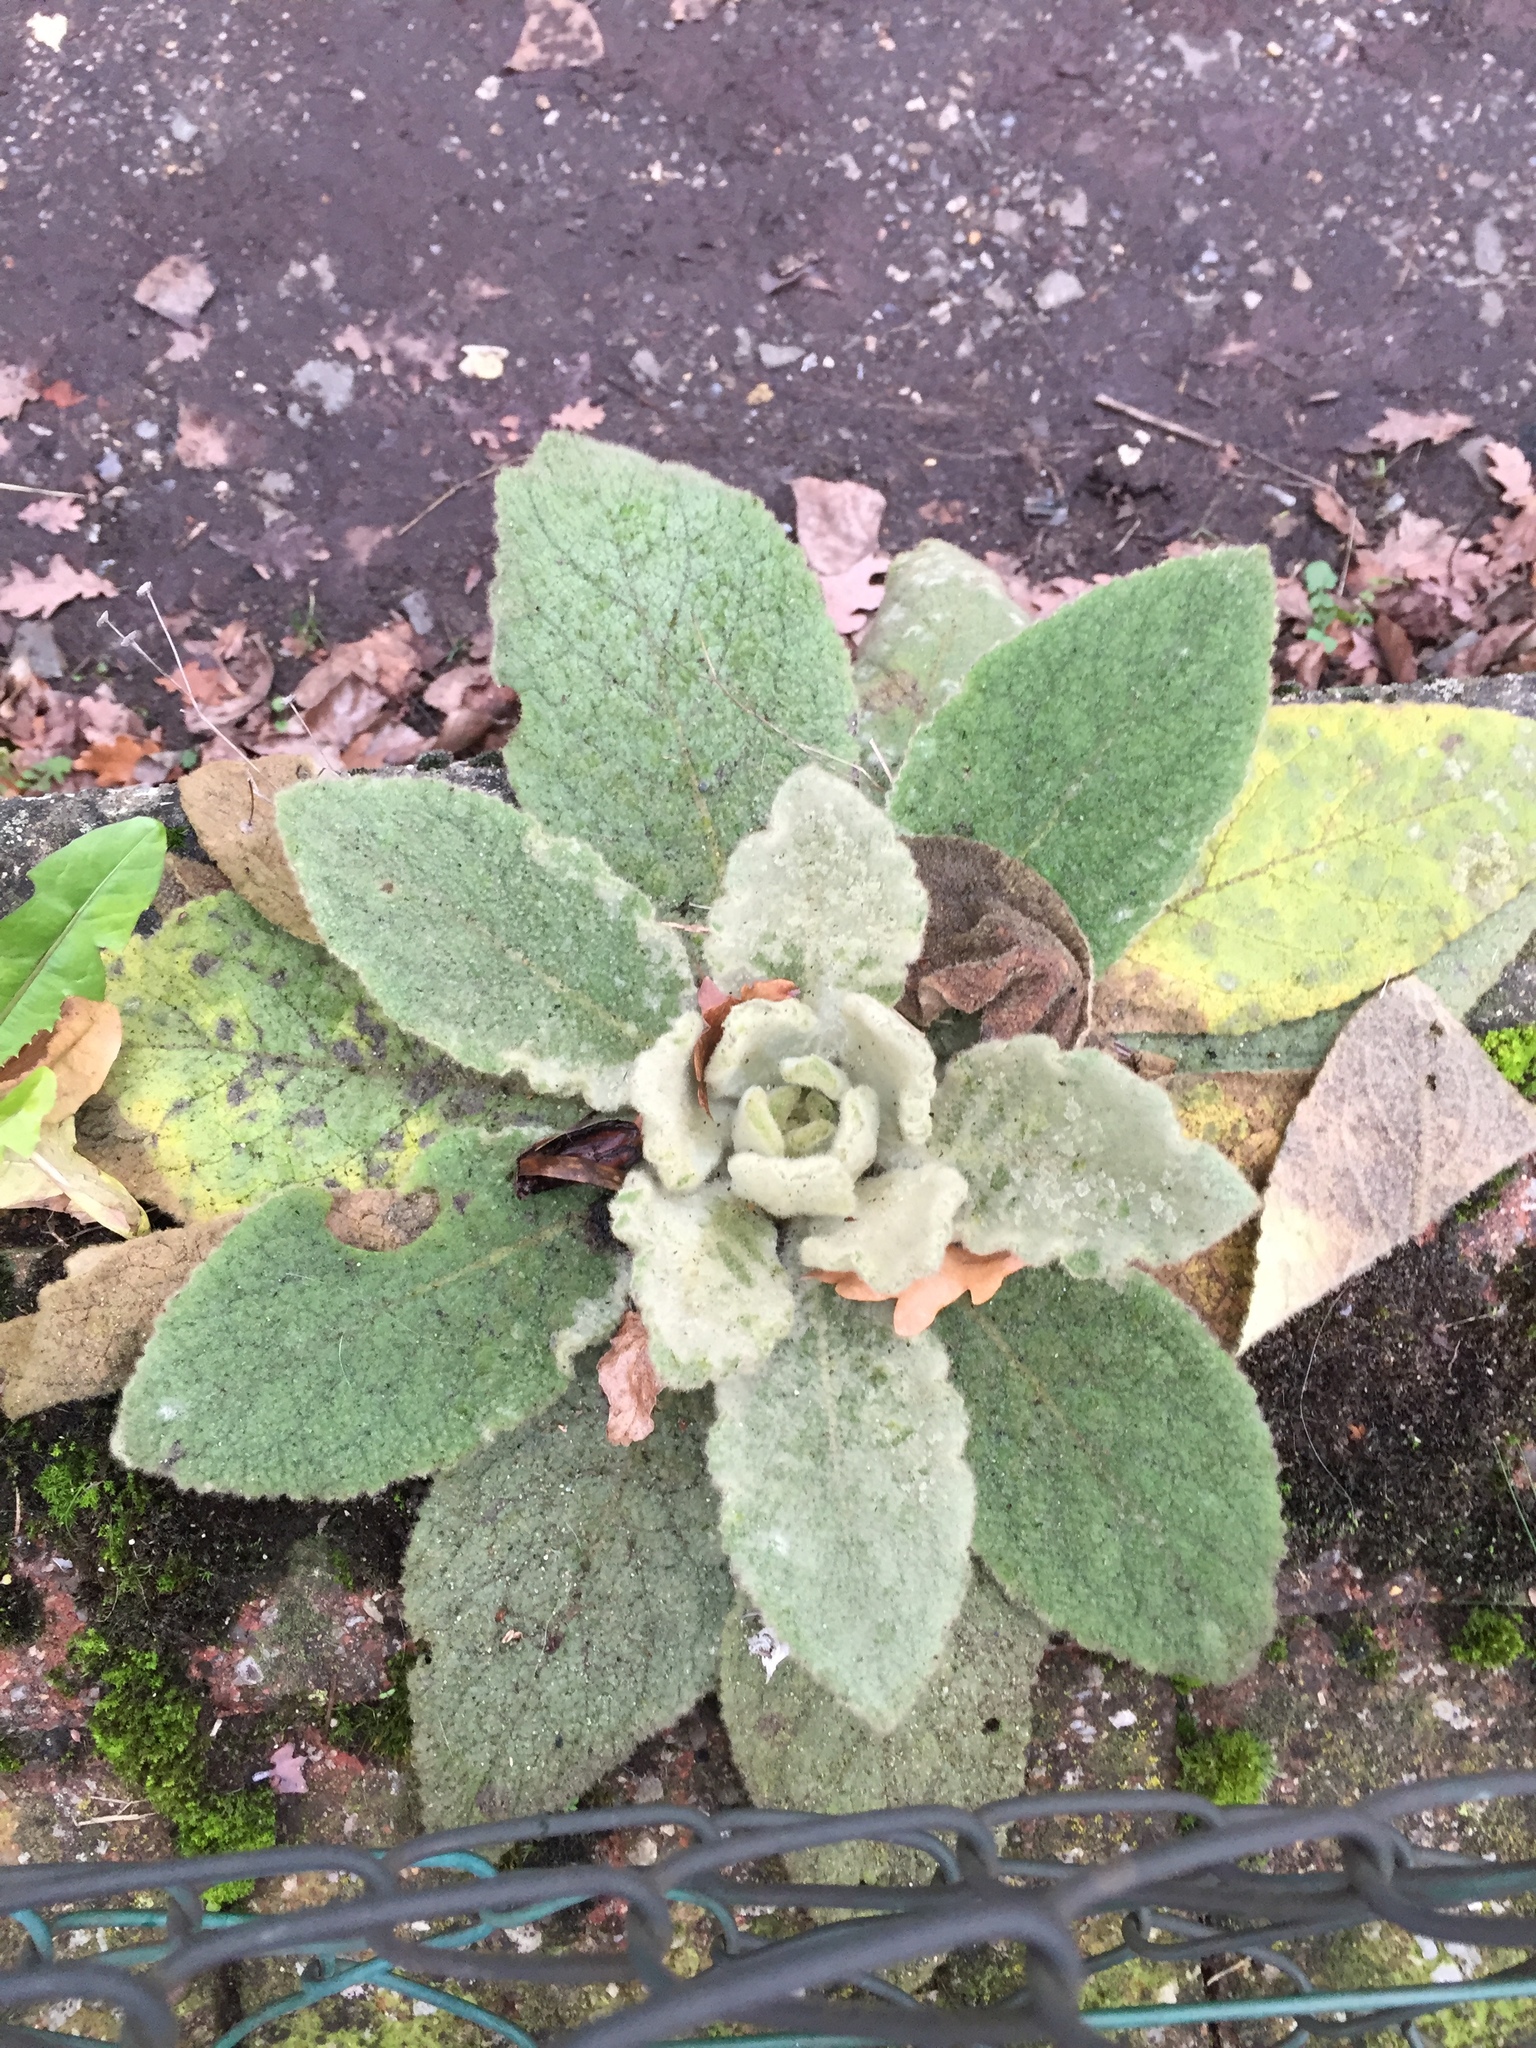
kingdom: Plantae
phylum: Tracheophyta
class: Magnoliopsida
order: Lamiales
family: Scrophulariaceae
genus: Verbascum
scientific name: Verbascum thapsus
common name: Common mullein
